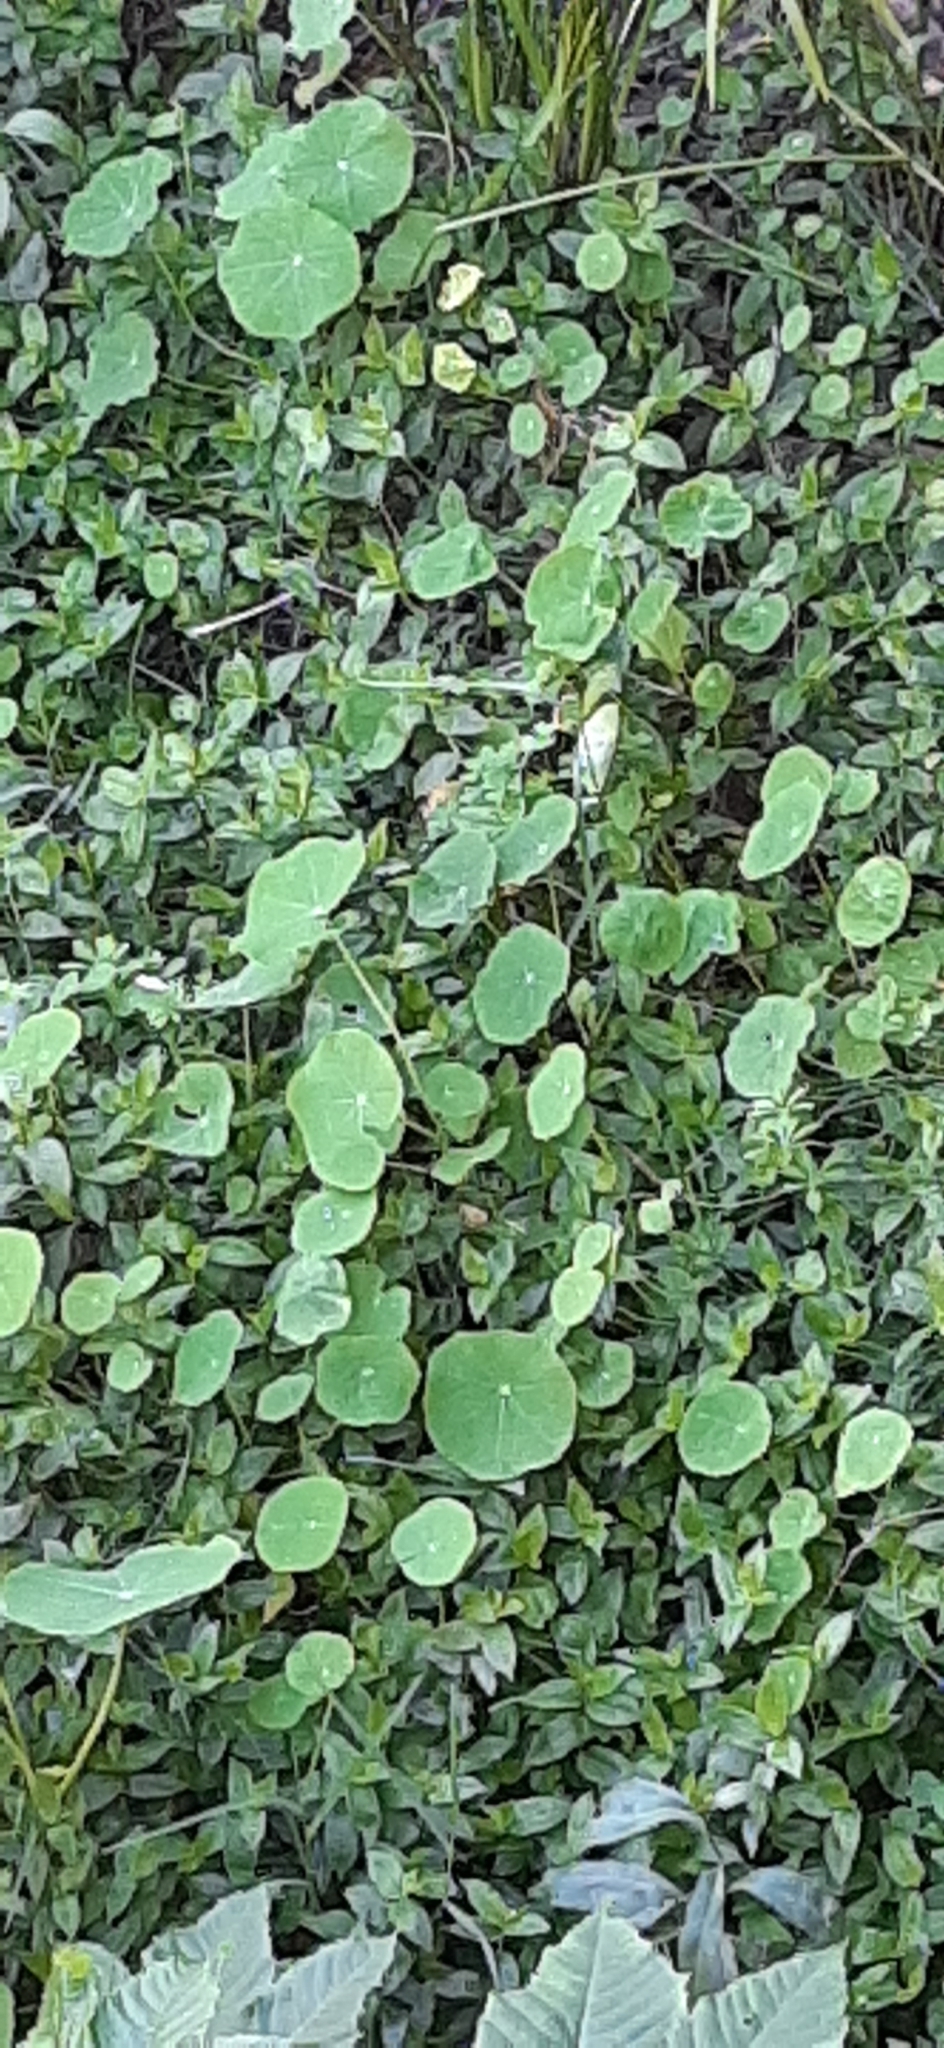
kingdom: Plantae
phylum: Tracheophyta
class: Magnoliopsida
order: Brassicales
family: Tropaeolaceae
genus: Tropaeolum
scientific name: Tropaeolum majus
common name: Nasturtium
